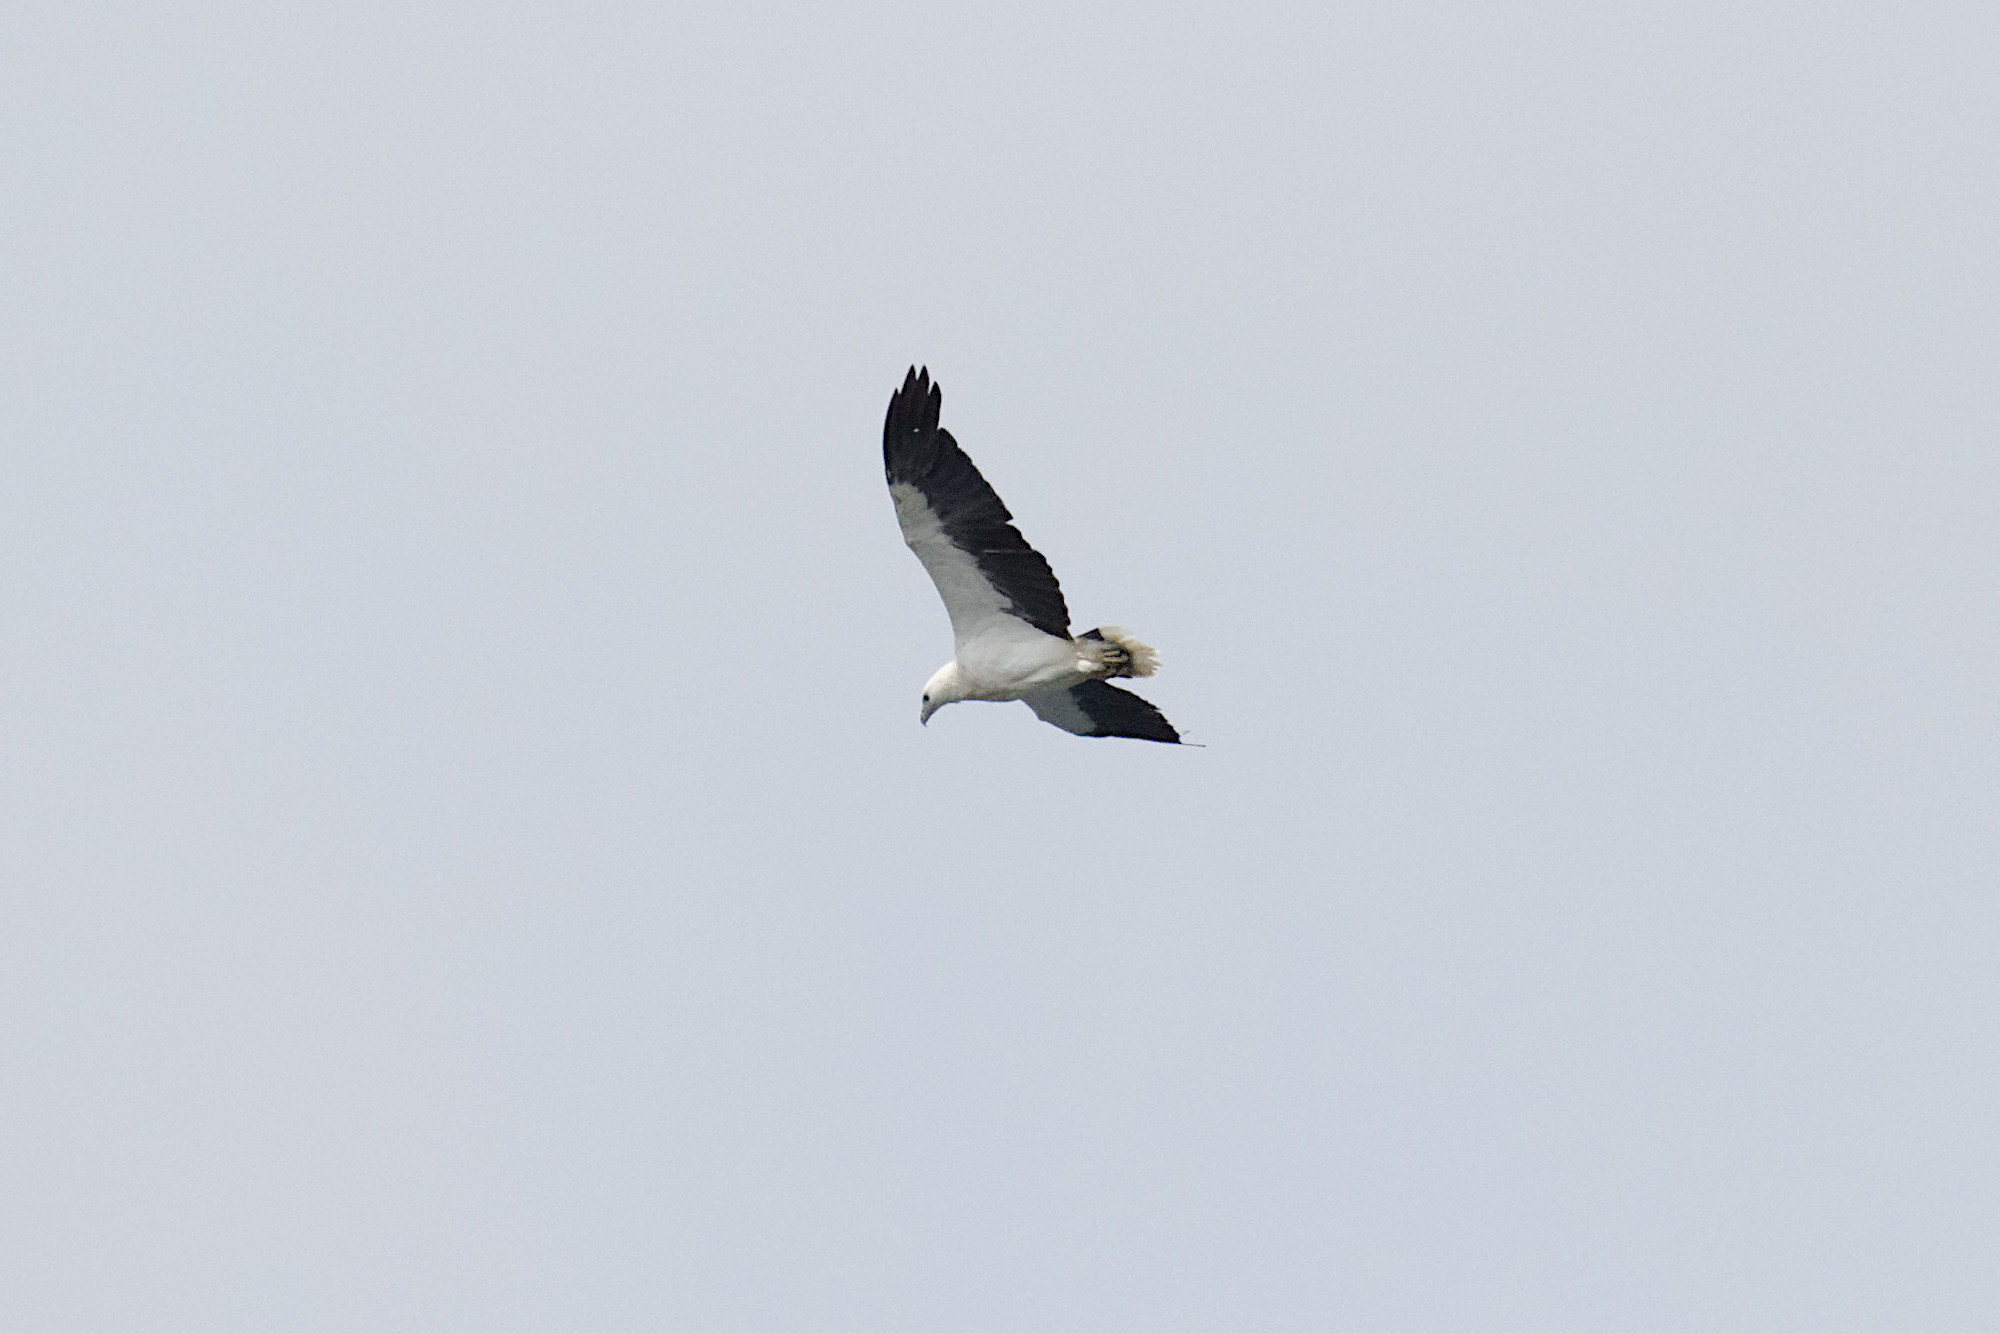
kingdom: Animalia
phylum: Chordata
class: Aves
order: Accipitriformes
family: Accipitridae
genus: Haliaeetus
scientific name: Haliaeetus leucogaster
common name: White-bellied sea eagle
